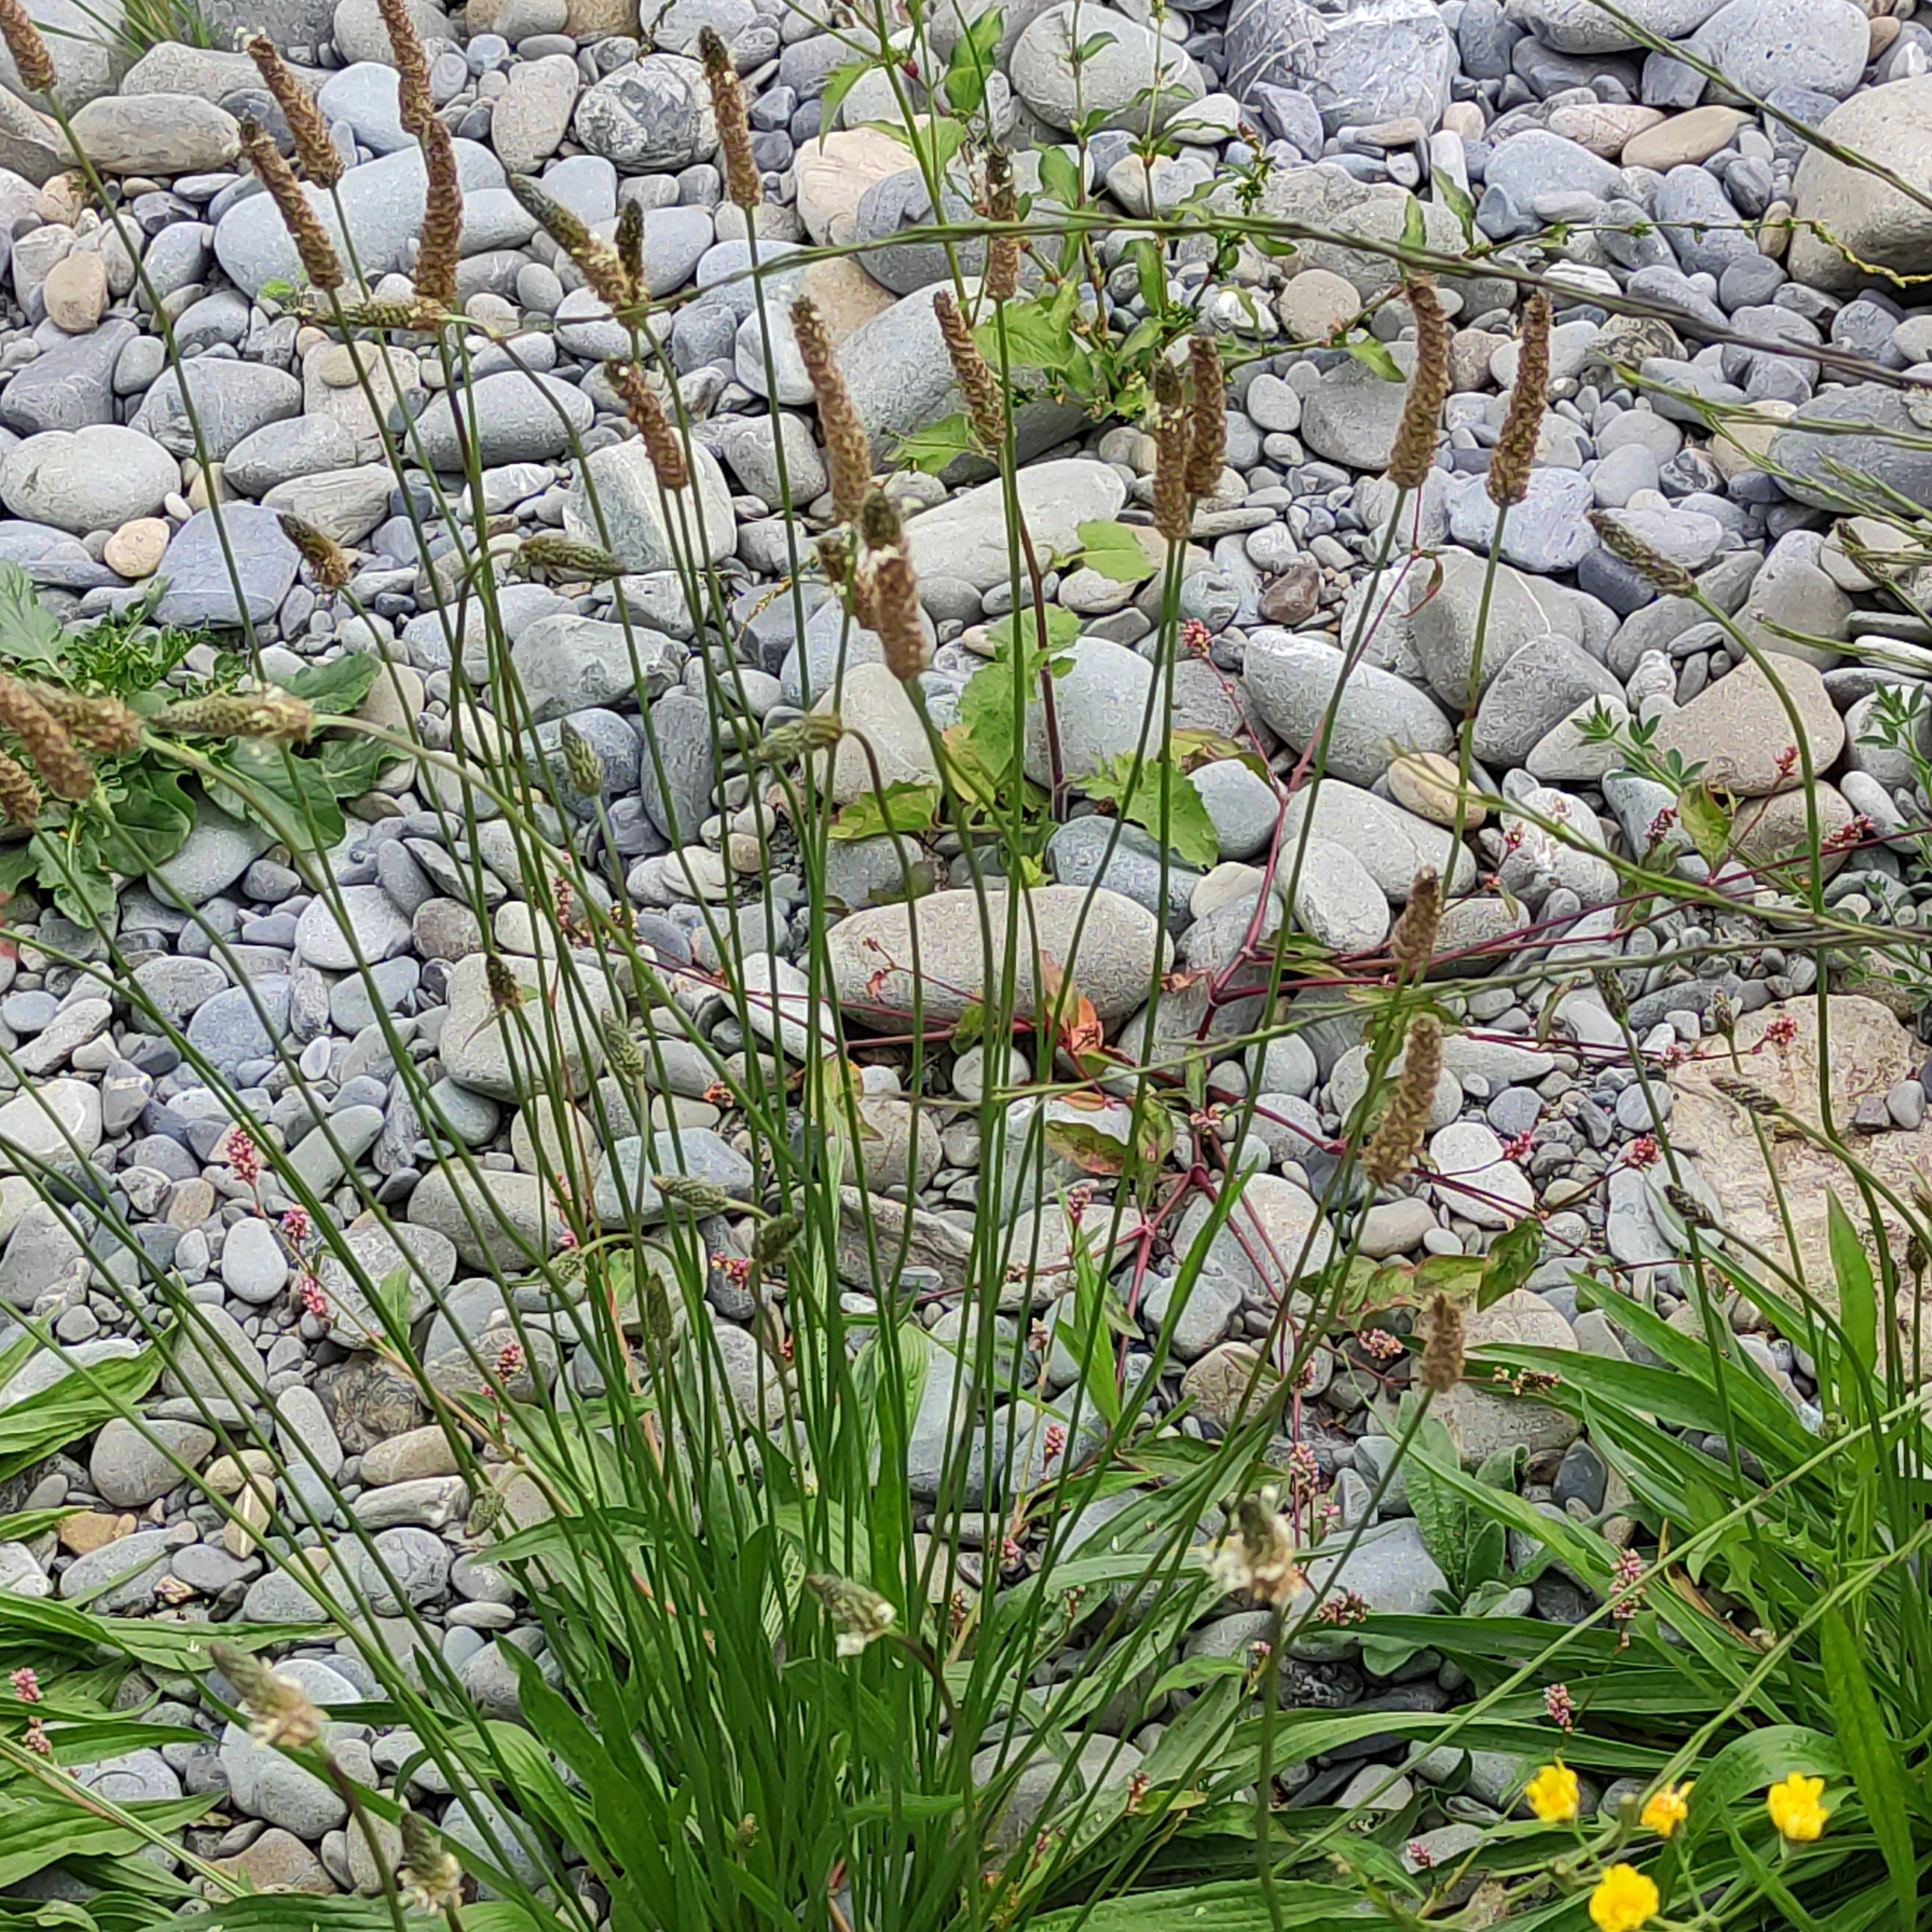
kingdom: Plantae
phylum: Tracheophyta
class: Magnoliopsida
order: Lamiales
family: Plantaginaceae
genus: Plantago
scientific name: Plantago lanceolata
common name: Ribwort plantain
